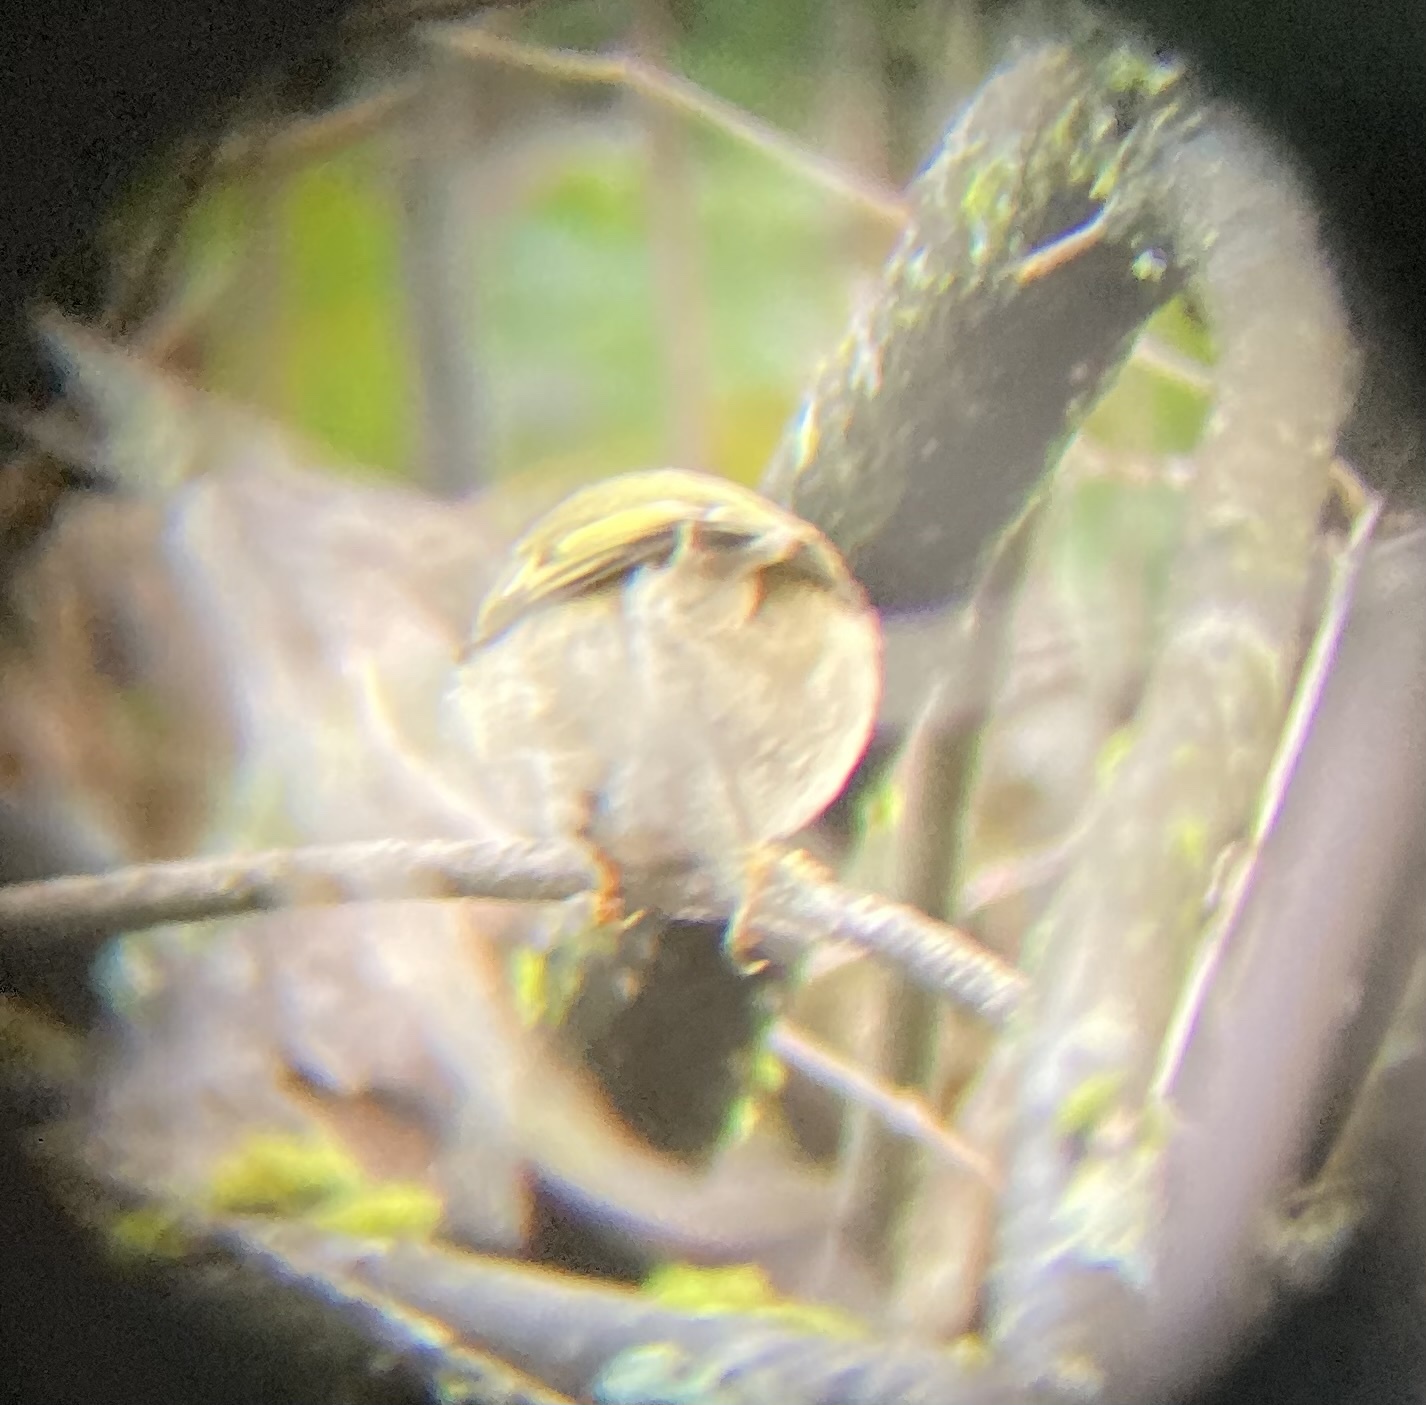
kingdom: Animalia
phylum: Chordata
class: Aves
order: Passeriformes
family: Regulidae
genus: Regulus
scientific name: Regulus satrapa
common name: Golden-crowned kinglet
